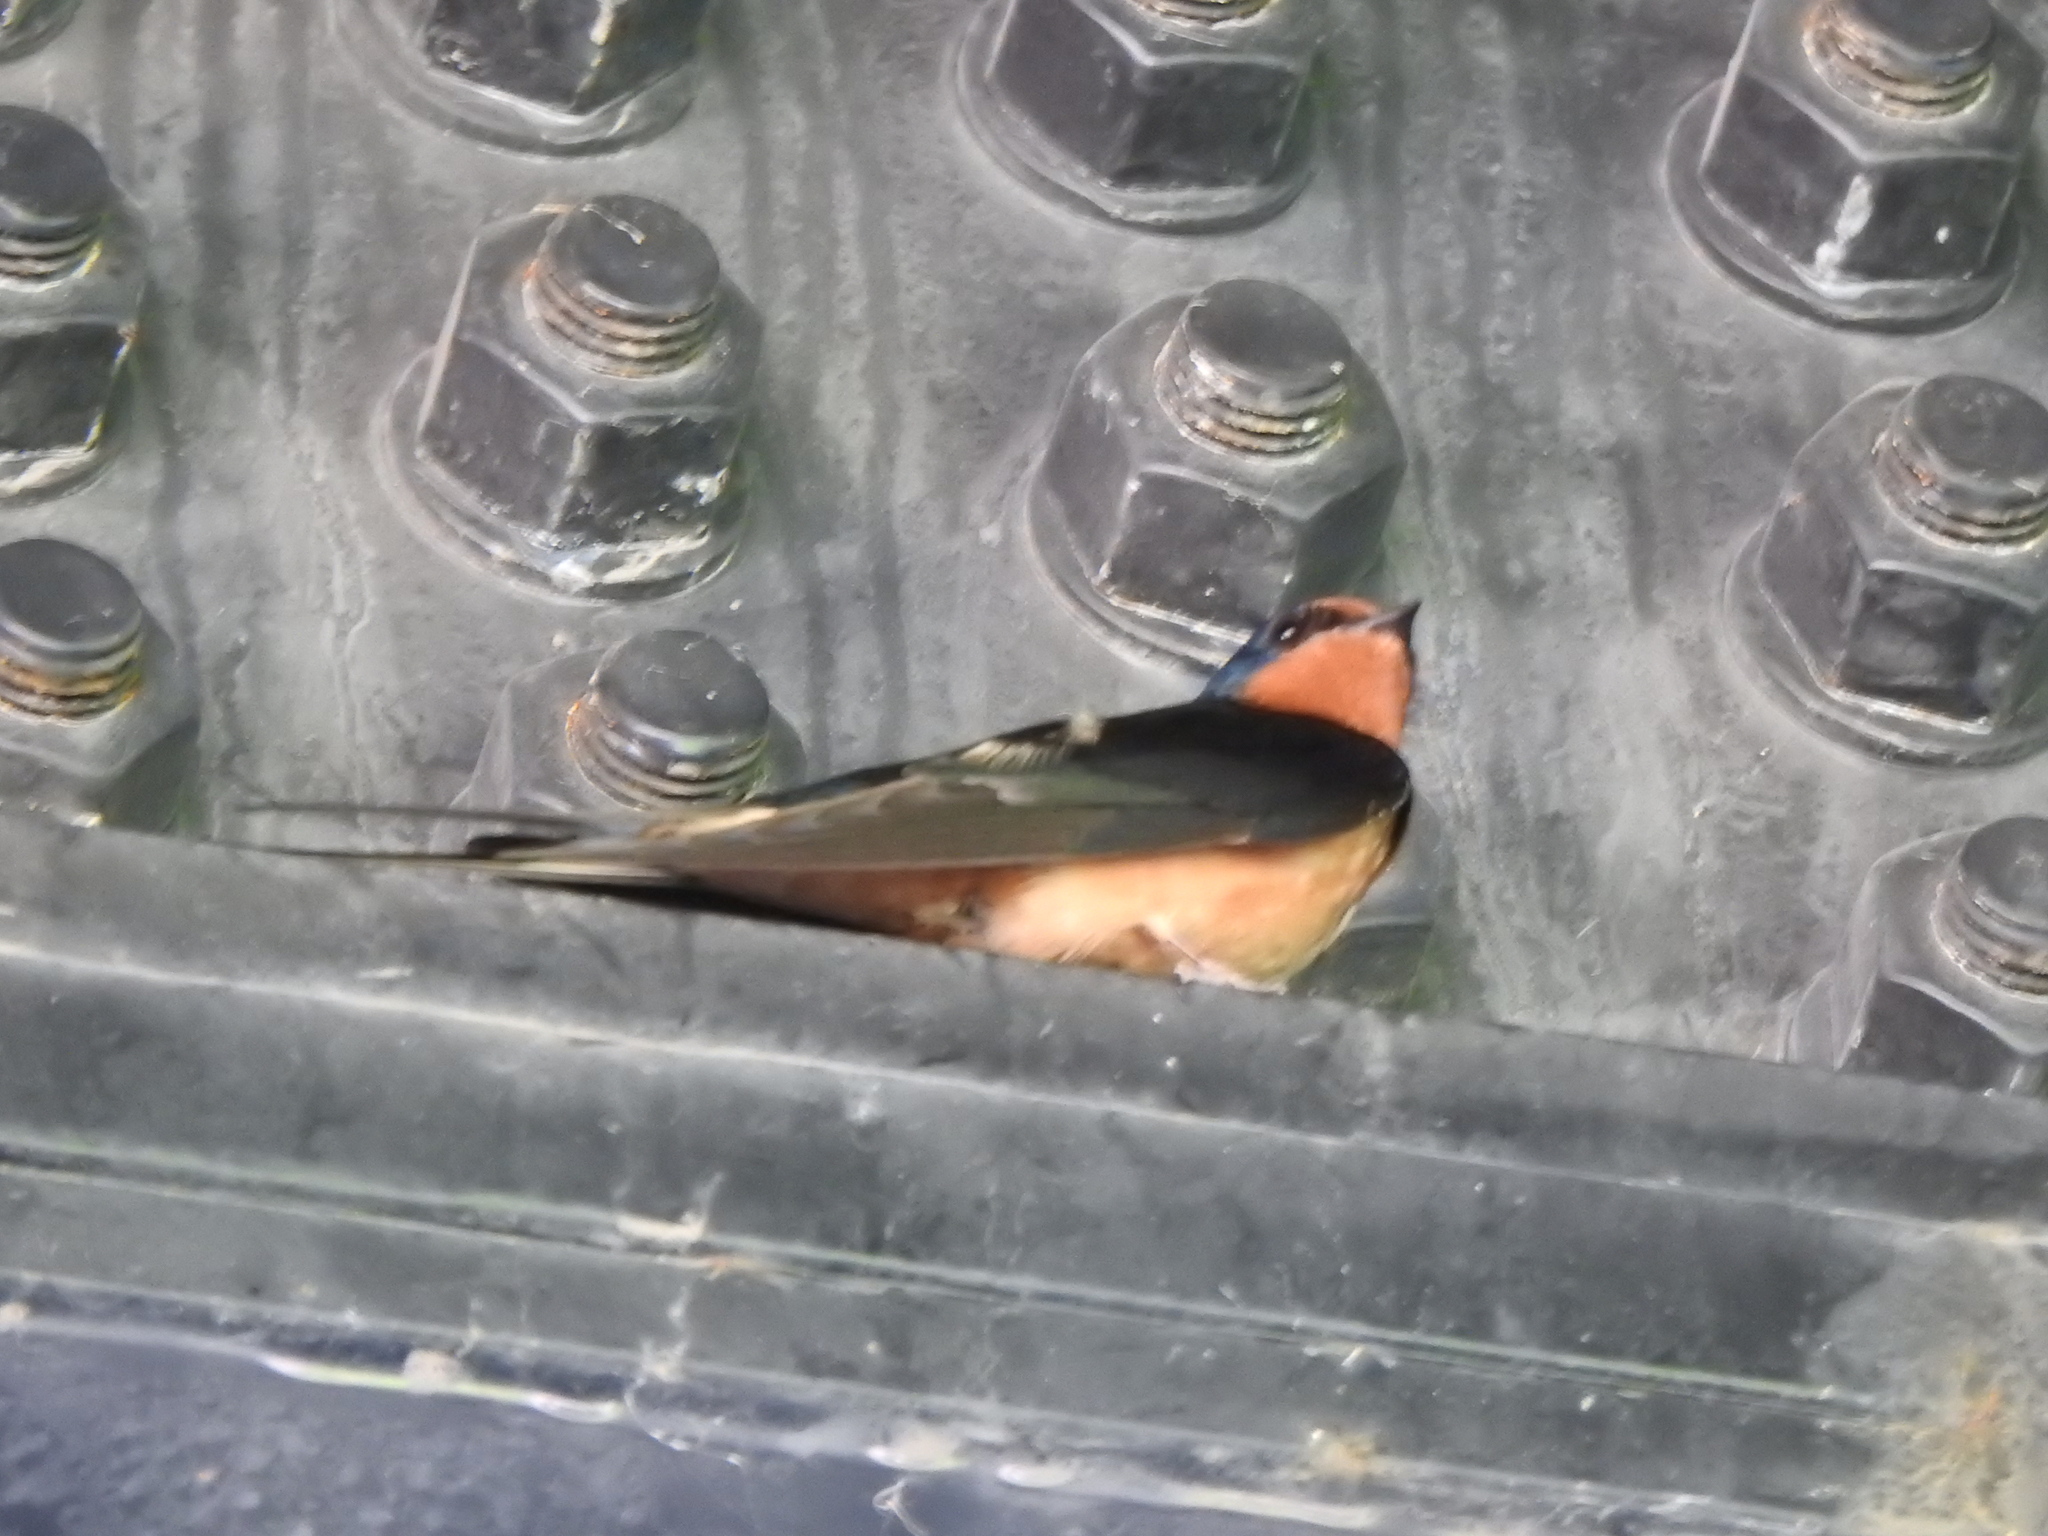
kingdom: Animalia
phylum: Chordata
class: Aves
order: Passeriformes
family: Hirundinidae
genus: Hirundo
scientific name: Hirundo rustica
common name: Barn swallow
